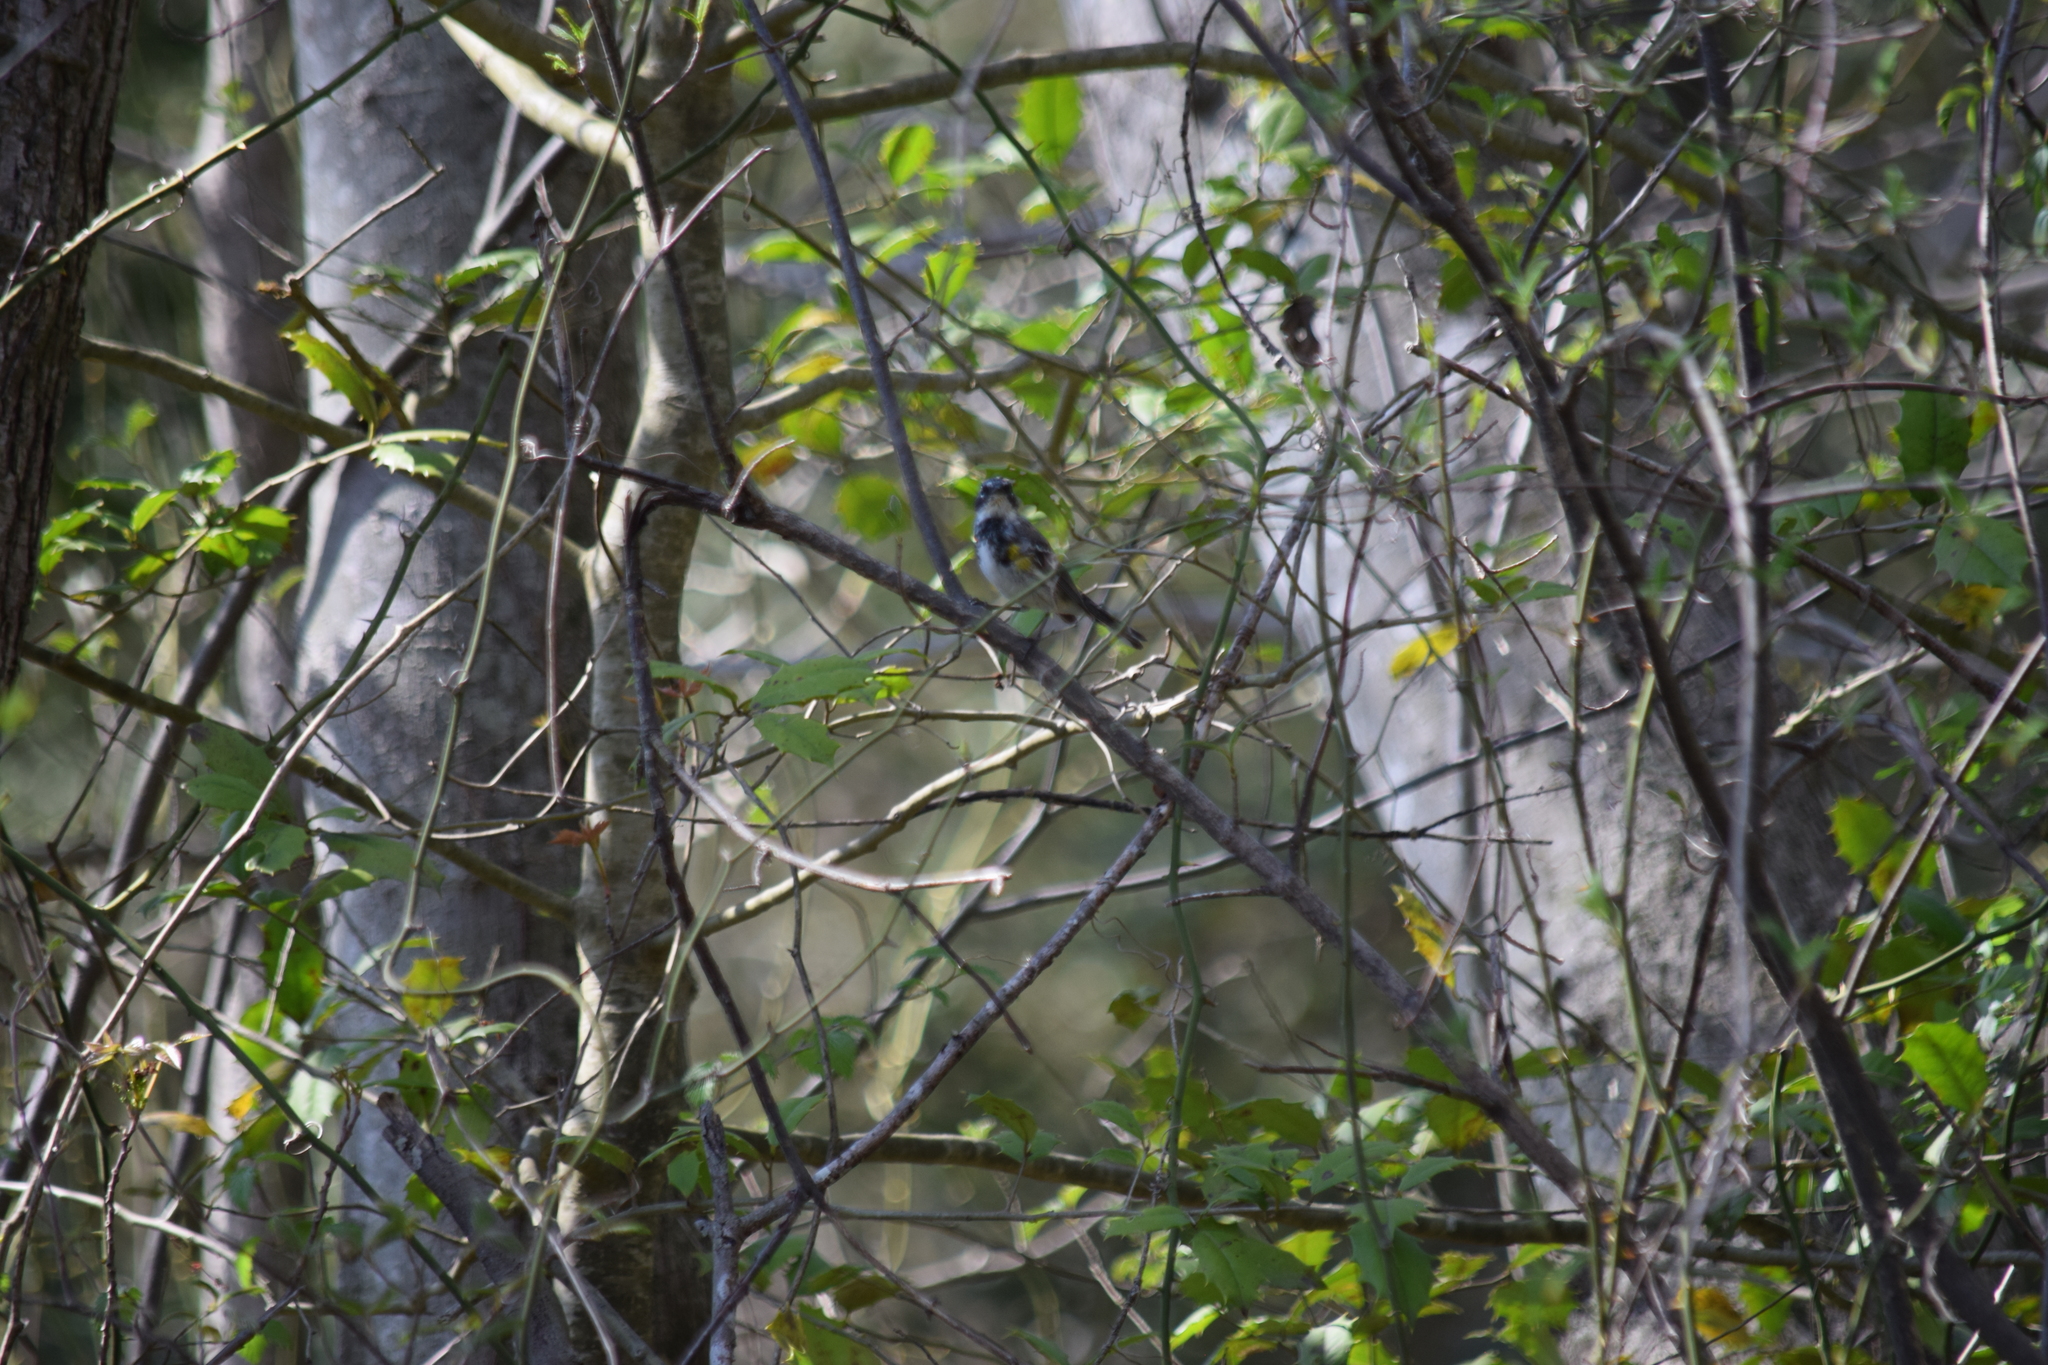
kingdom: Animalia
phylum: Chordata
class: Aves
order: Passeriformes
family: Parulidae
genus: Setophaga
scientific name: Setophaga coronata
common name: Myrtle warbler
